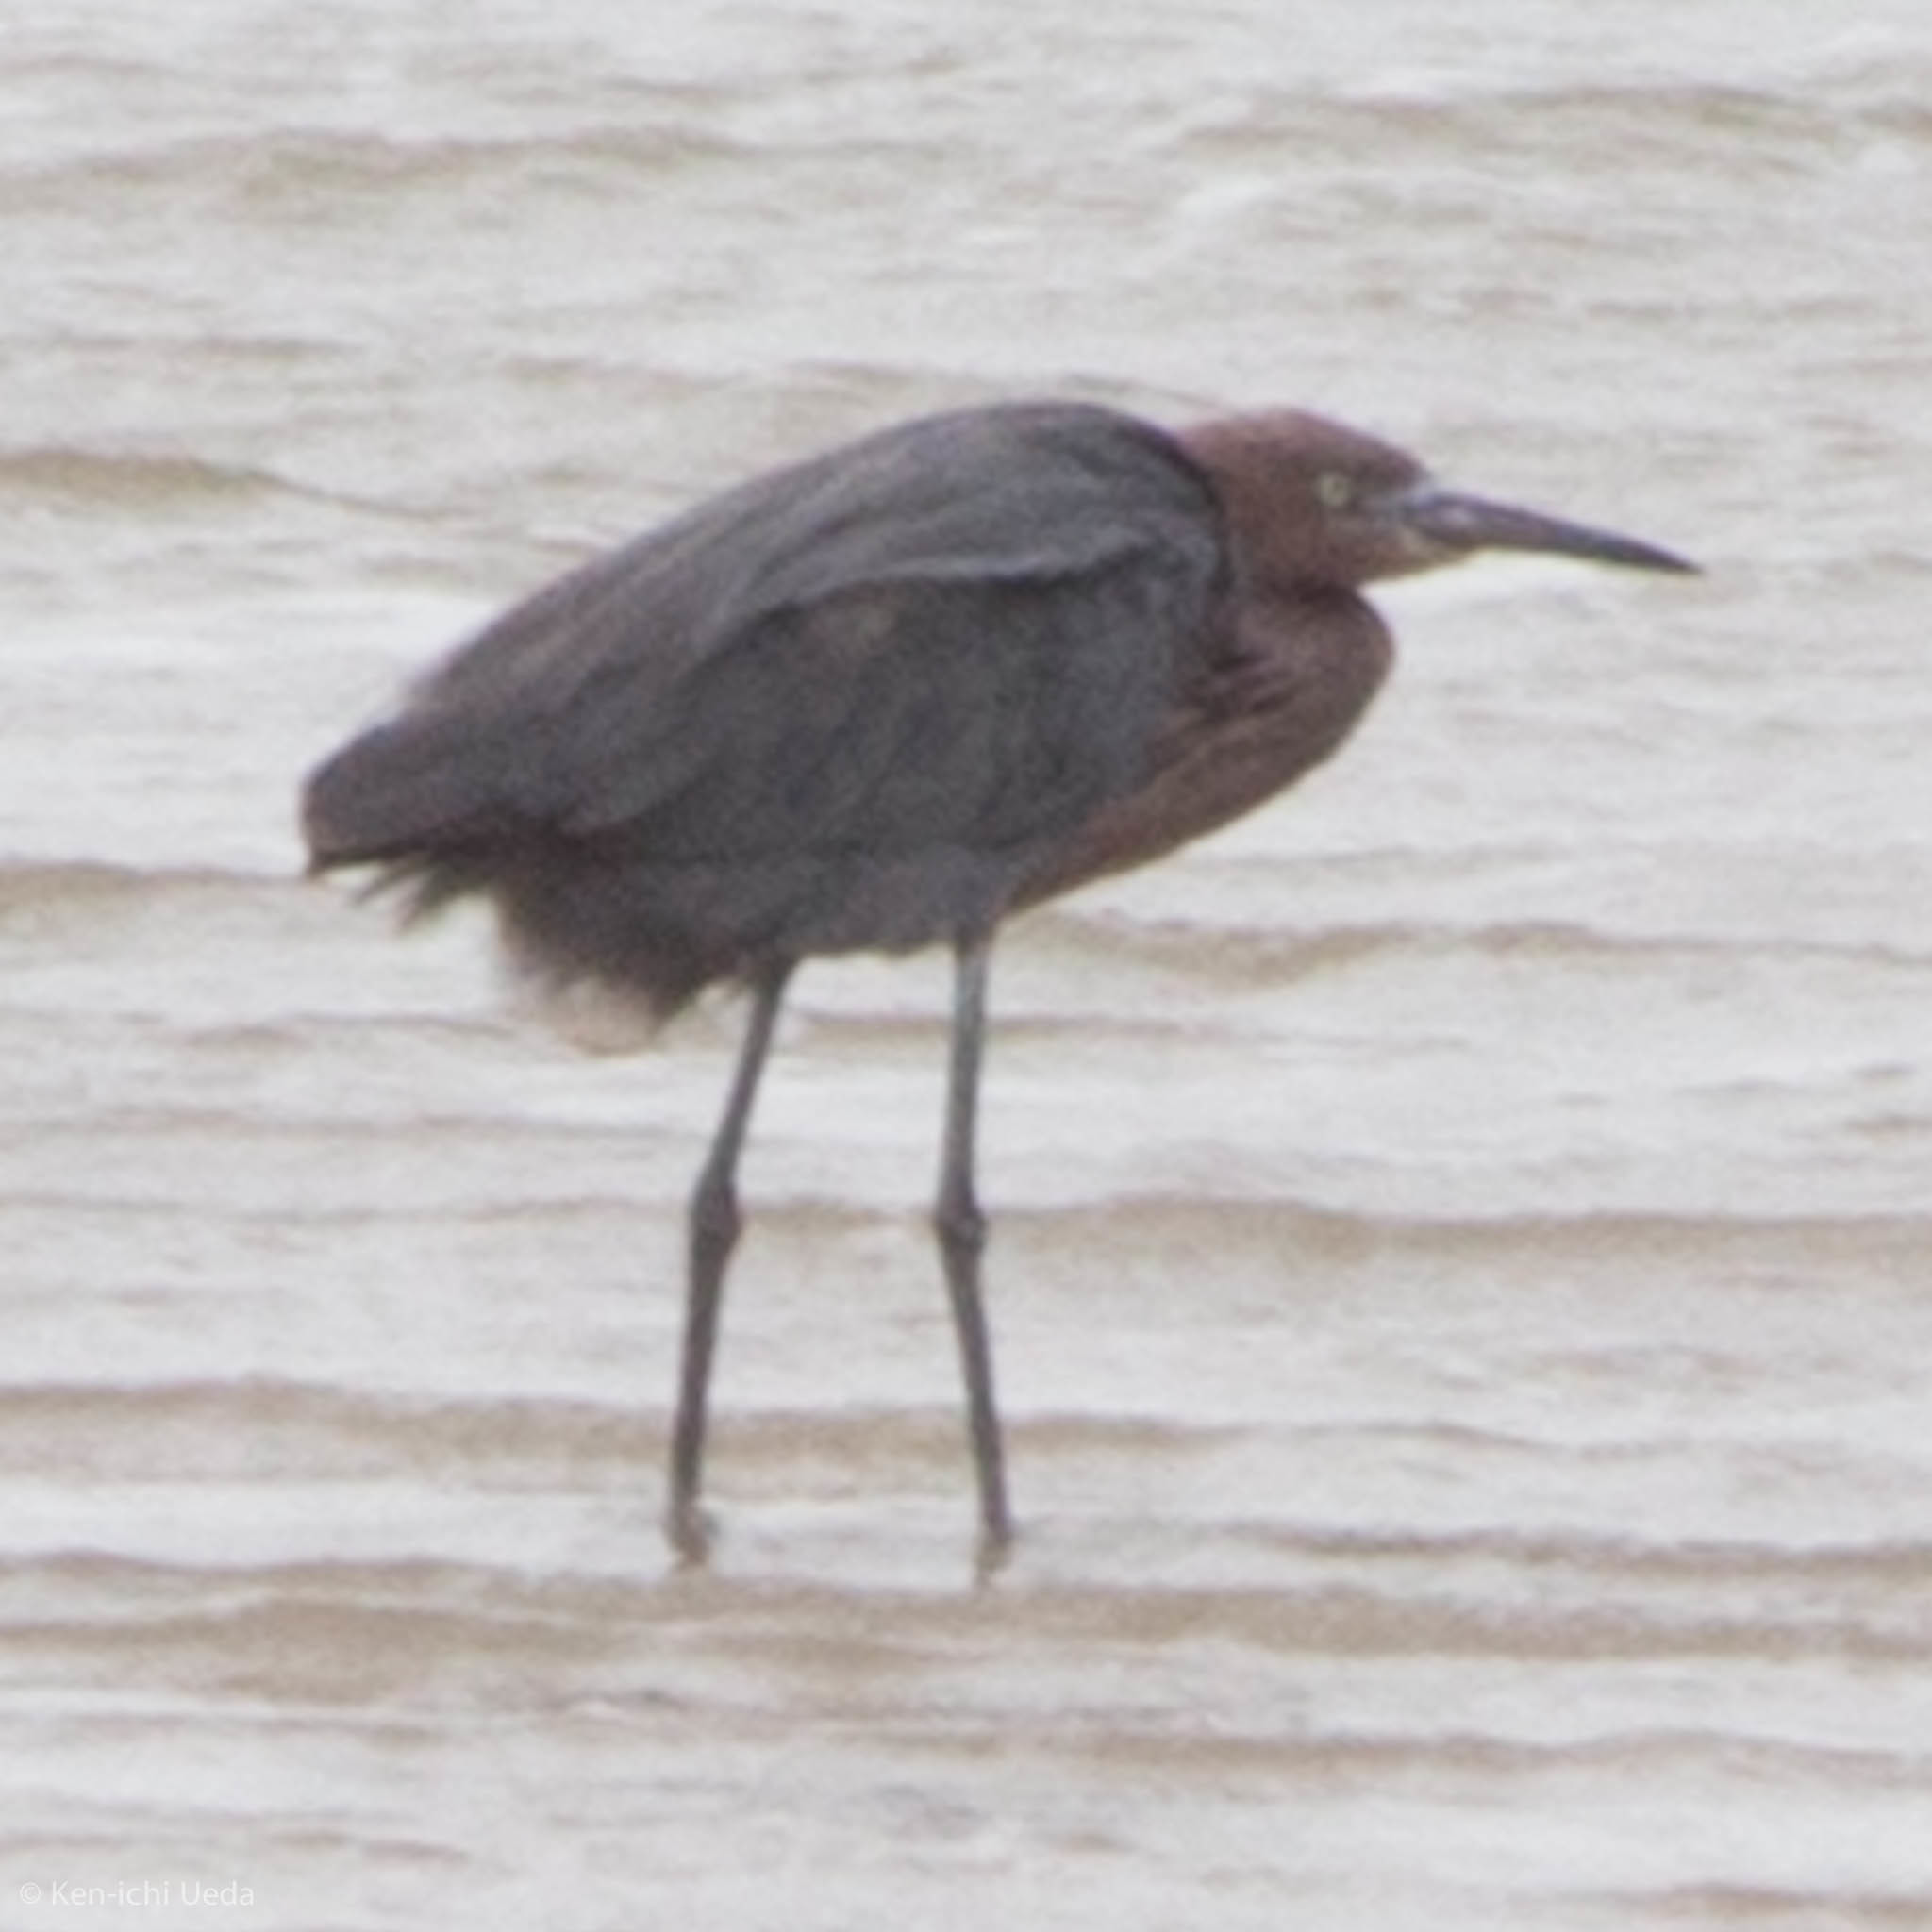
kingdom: Animalia
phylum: Chordata
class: Aves
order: Pelecaniformes
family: Ardeidae
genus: Egretta
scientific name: Egretta rufescens
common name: Reddish egret
